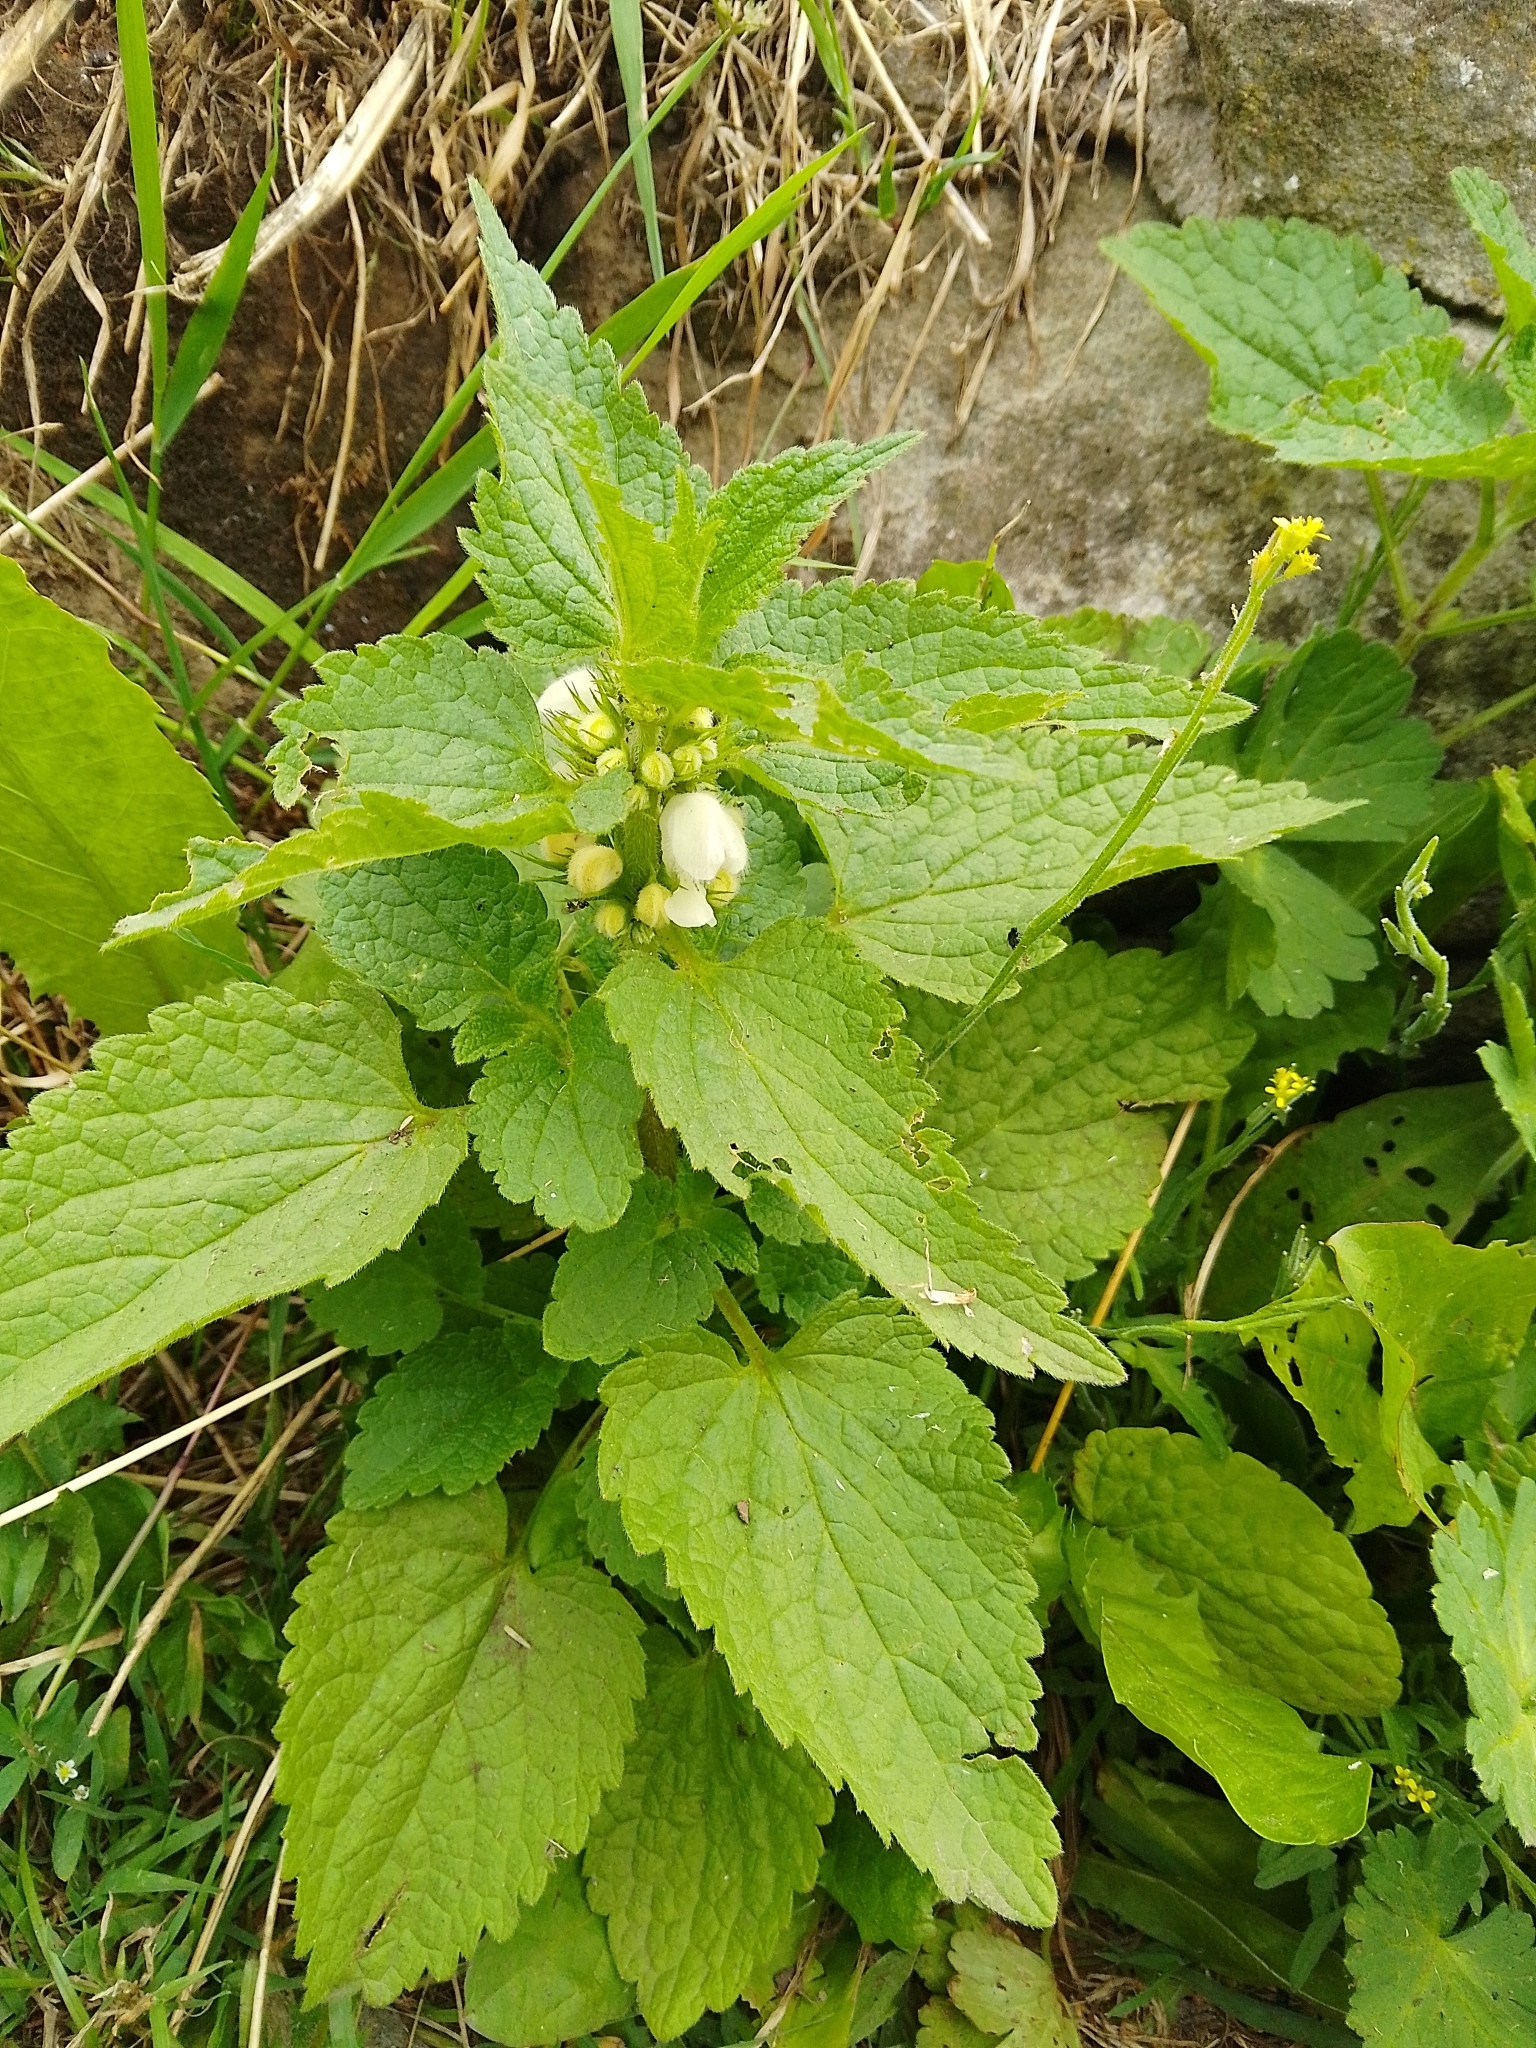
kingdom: Plantae
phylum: Tracheophyta
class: Magnoliopsida
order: Lamiales
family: Lamiaceae
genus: Lamium
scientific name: Lamium album
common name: White dead-nettle
